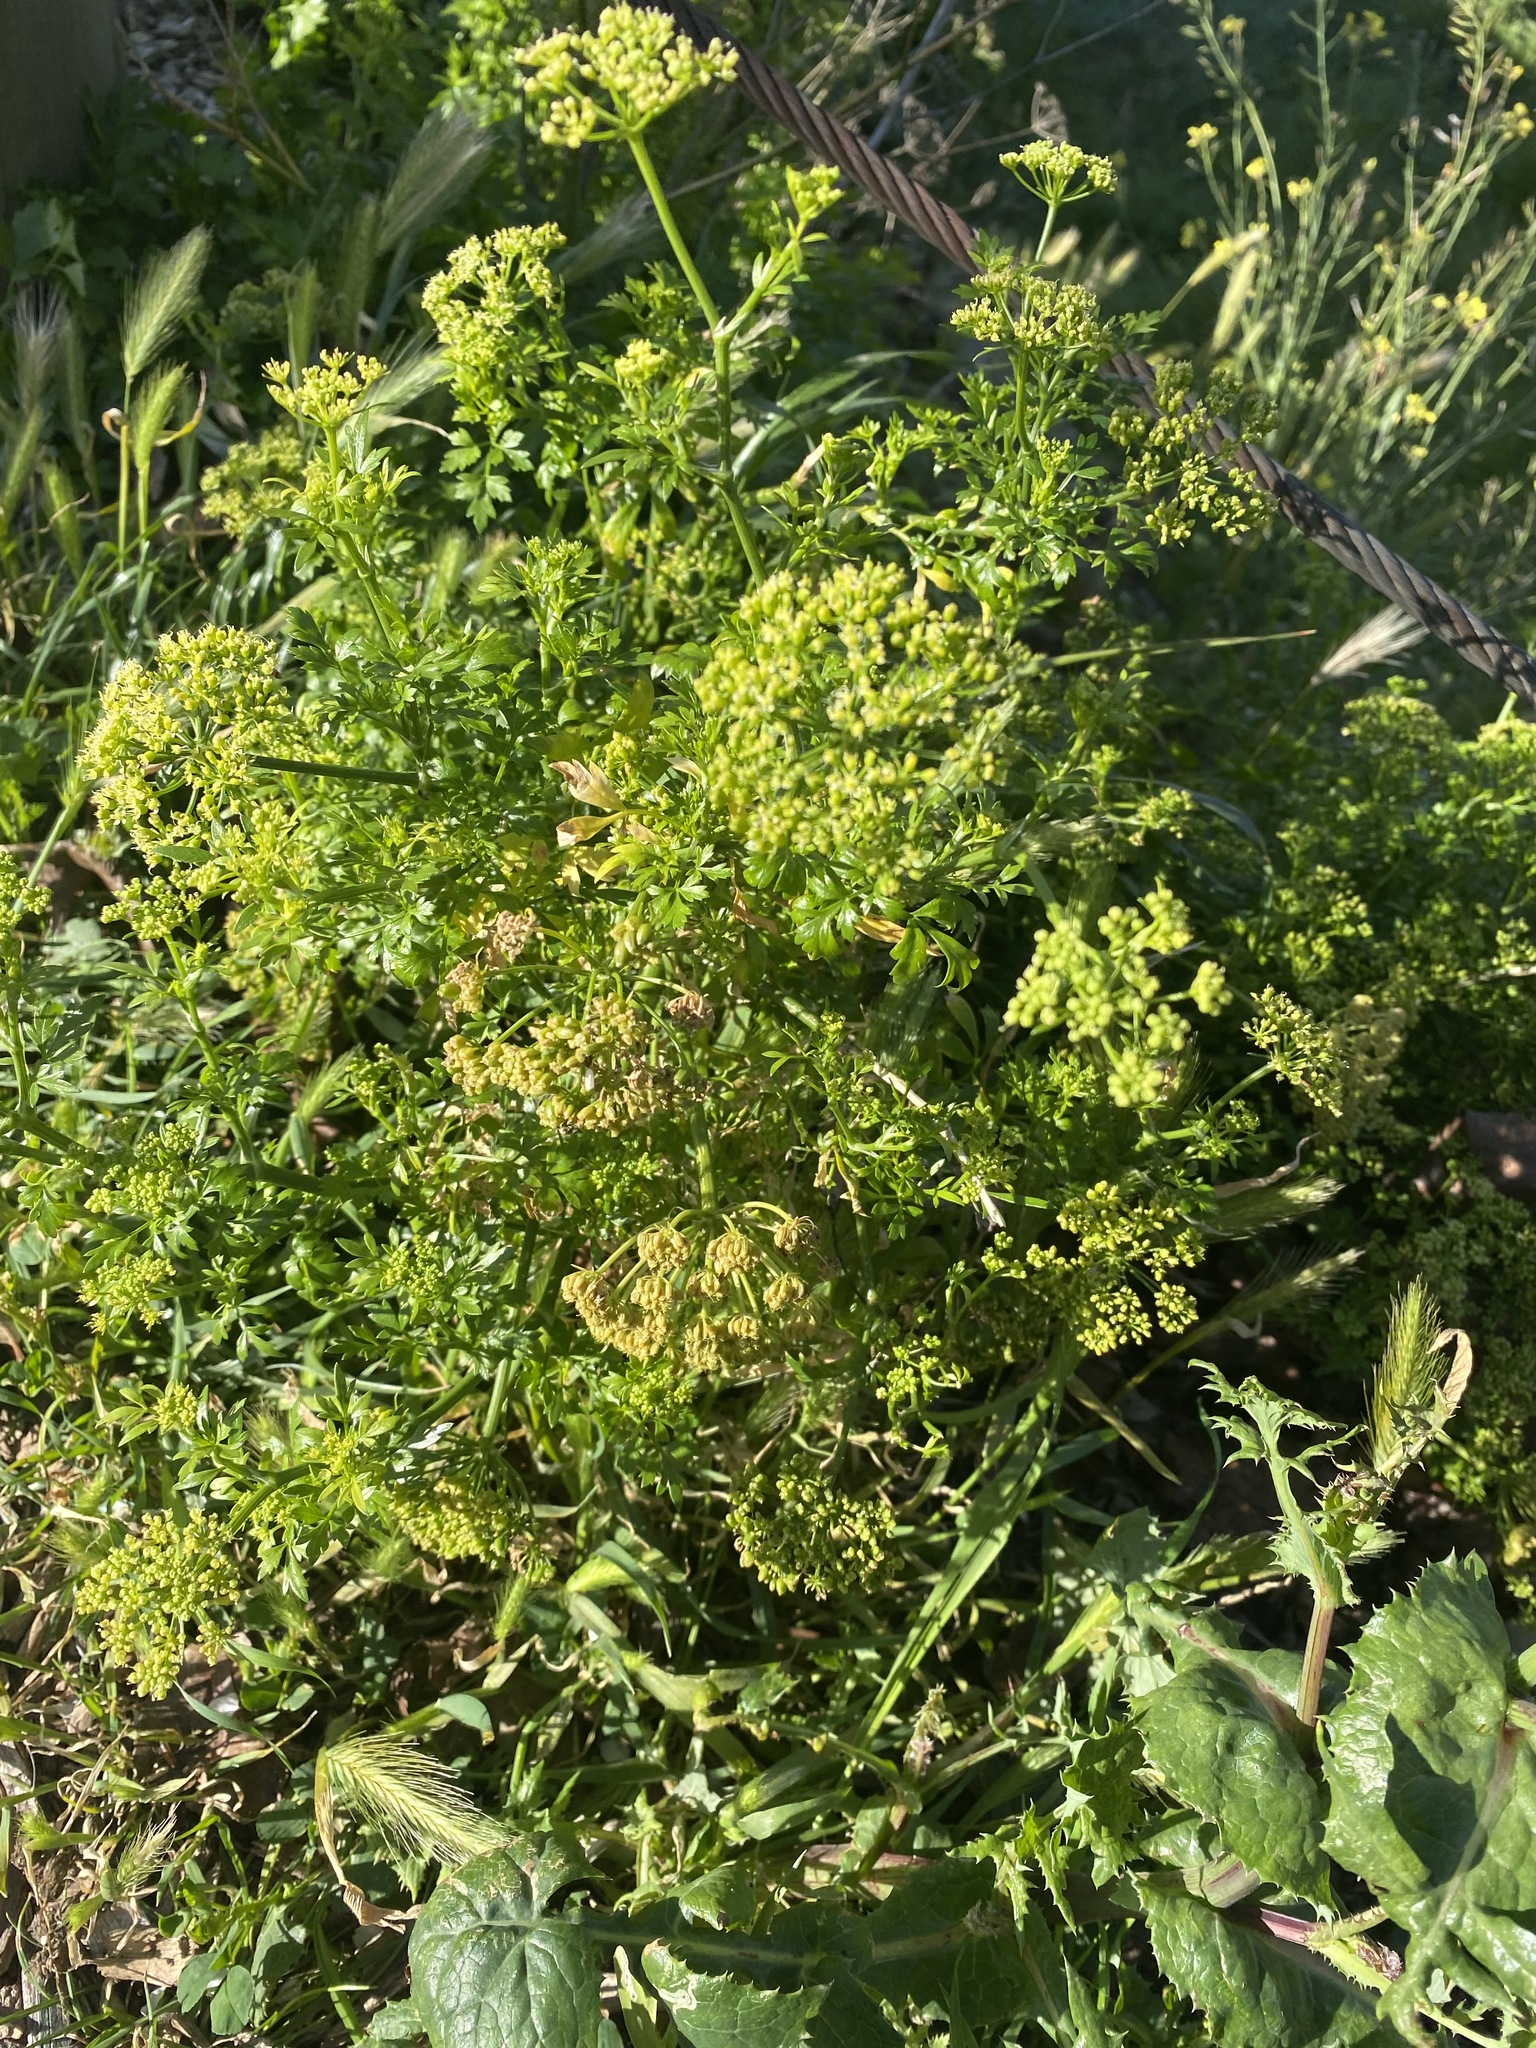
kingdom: Plantae
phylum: Tracheophyta
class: Magnoliopsida
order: Apiales
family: Apiaceae
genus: Petroselinum
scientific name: Petroselinum crispum
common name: Parsley
